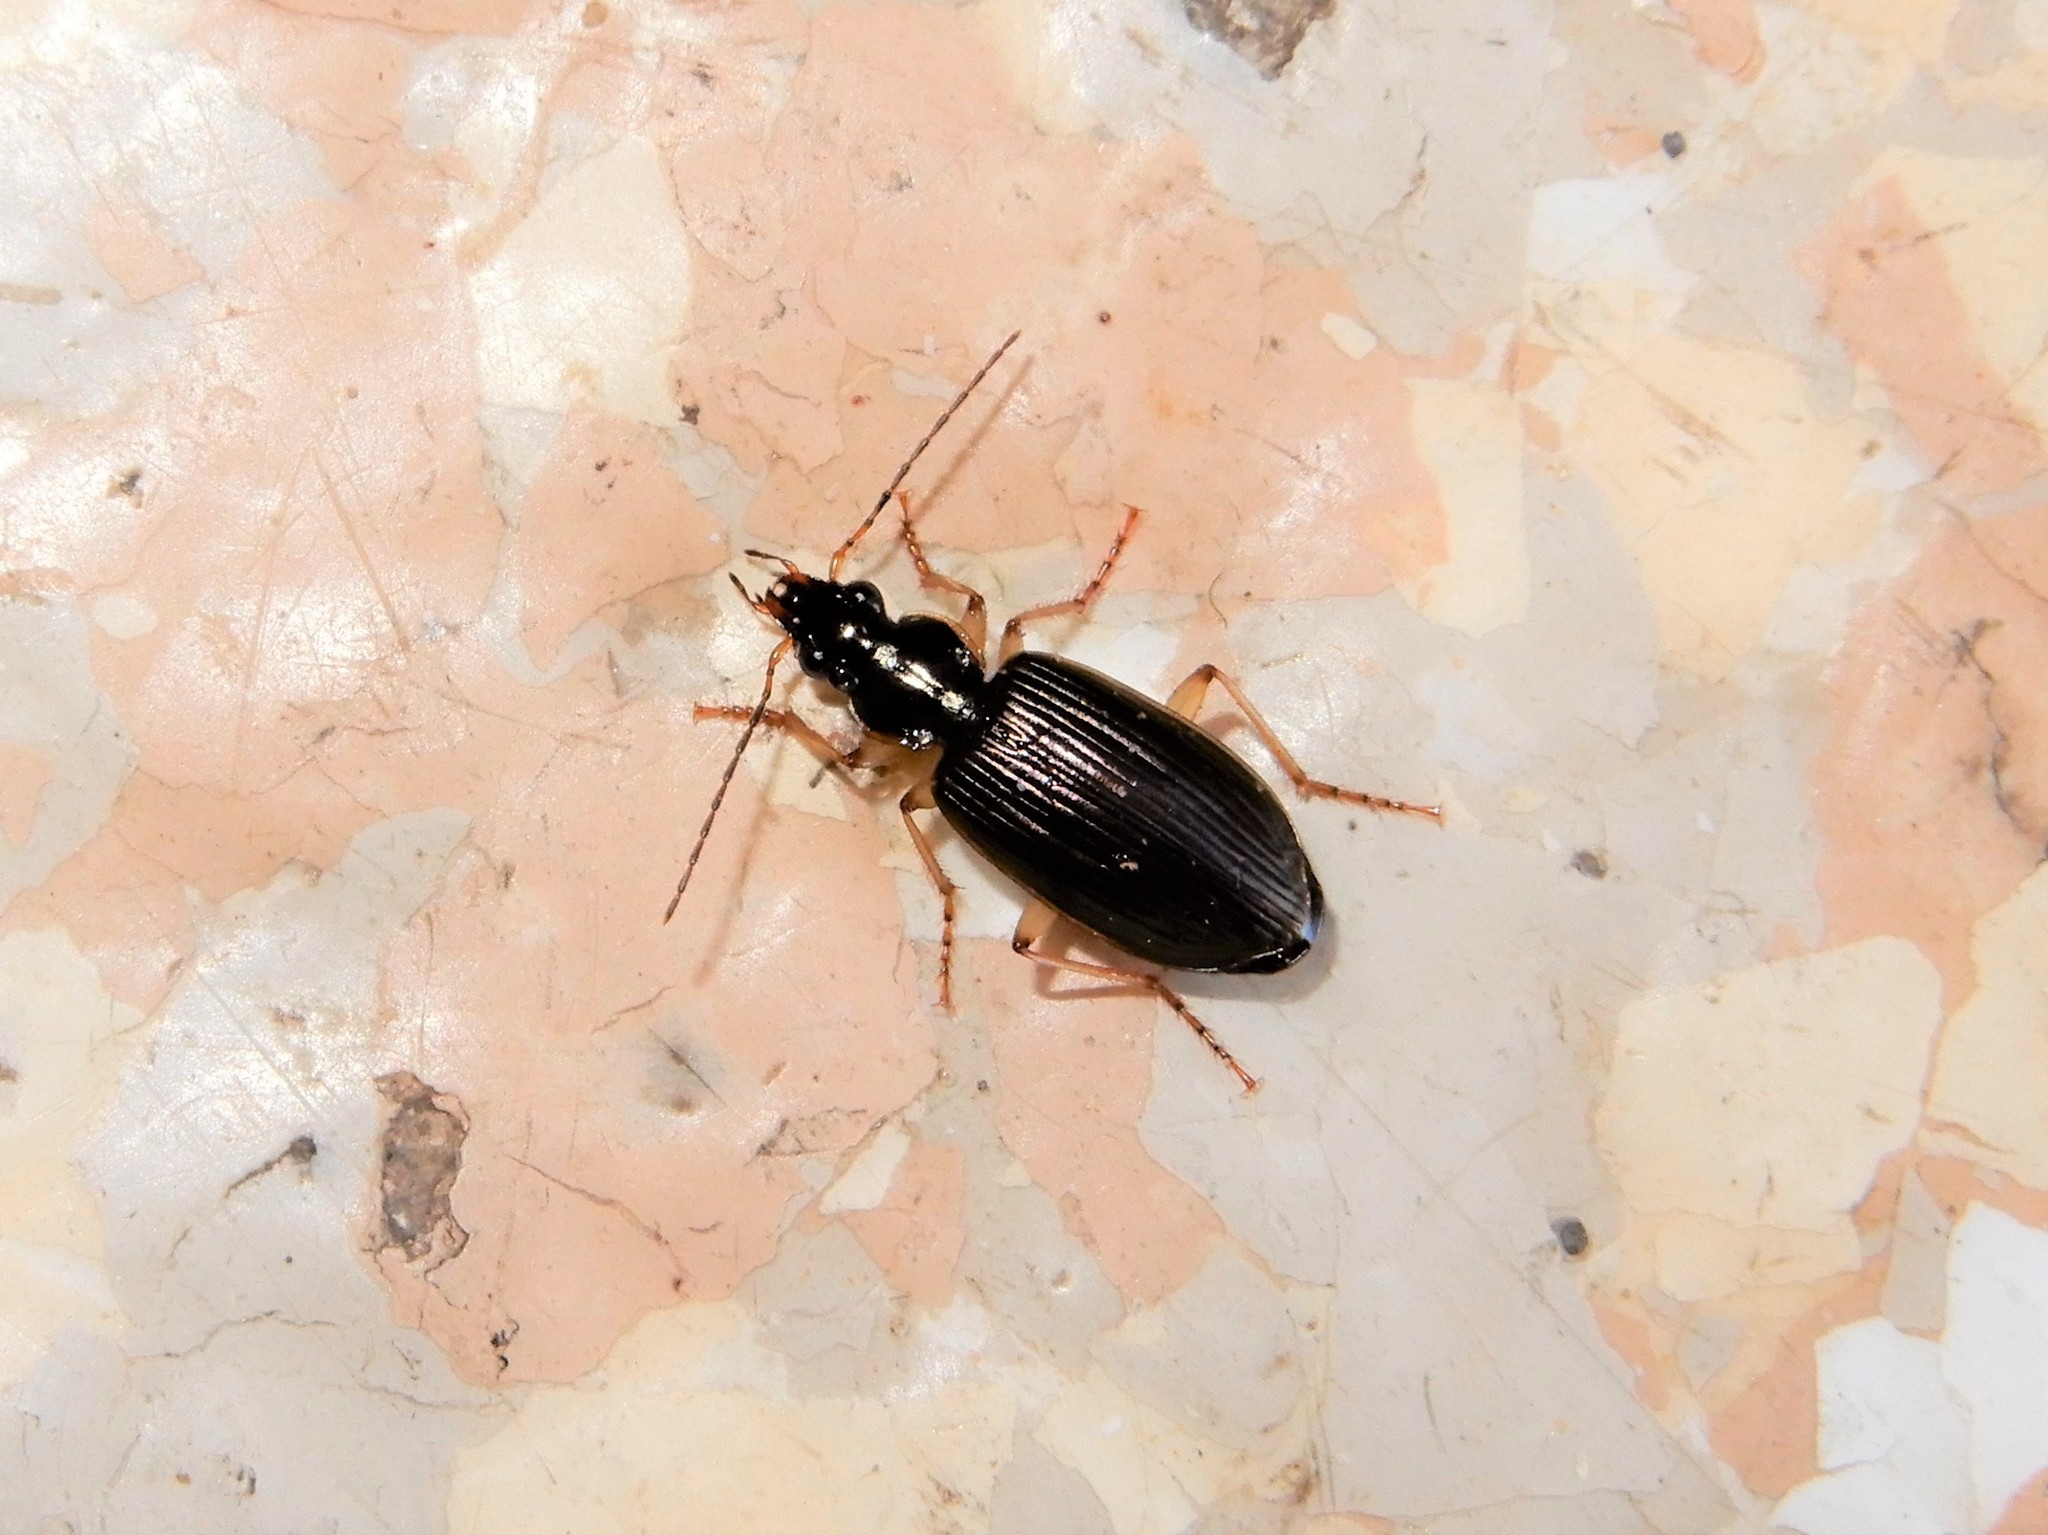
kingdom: Animalia
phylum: Arthropoda
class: Insecta
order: Coleoptera
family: Carabidae
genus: Notagonum
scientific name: Notagonum submetallicum
